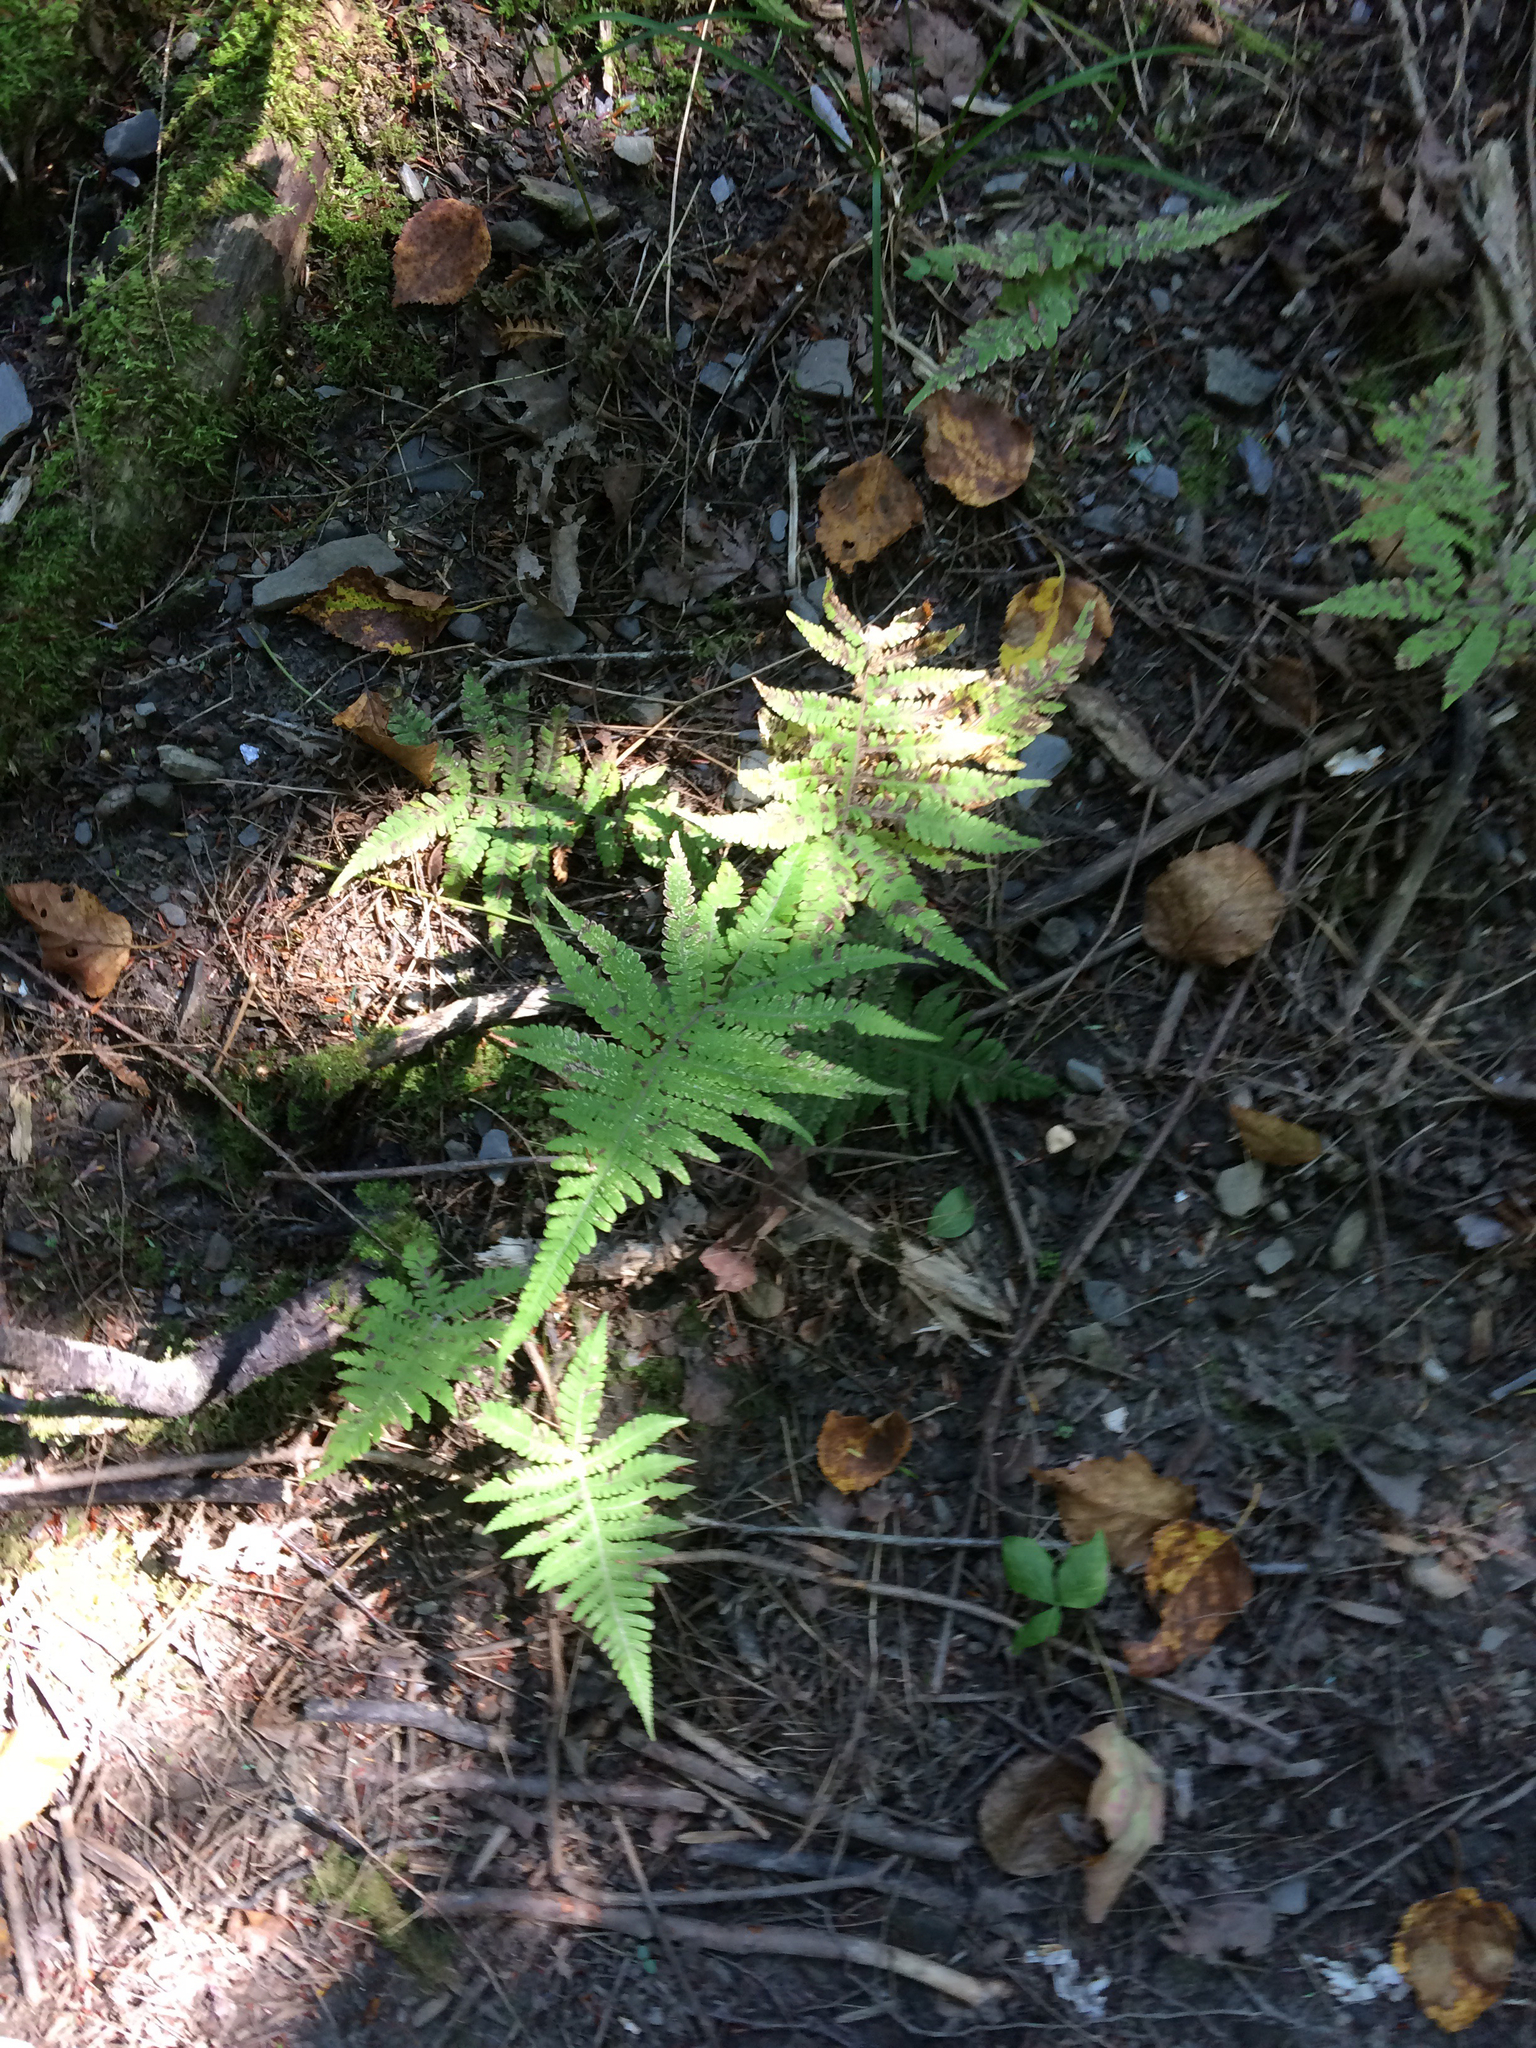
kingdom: Plantae
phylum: Tracheophyta
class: Polypodiopsida
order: Polypodiales
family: Thelypteridaceae
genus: Phegopteris
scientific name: Phegopteris connectilis
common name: Beech fern
